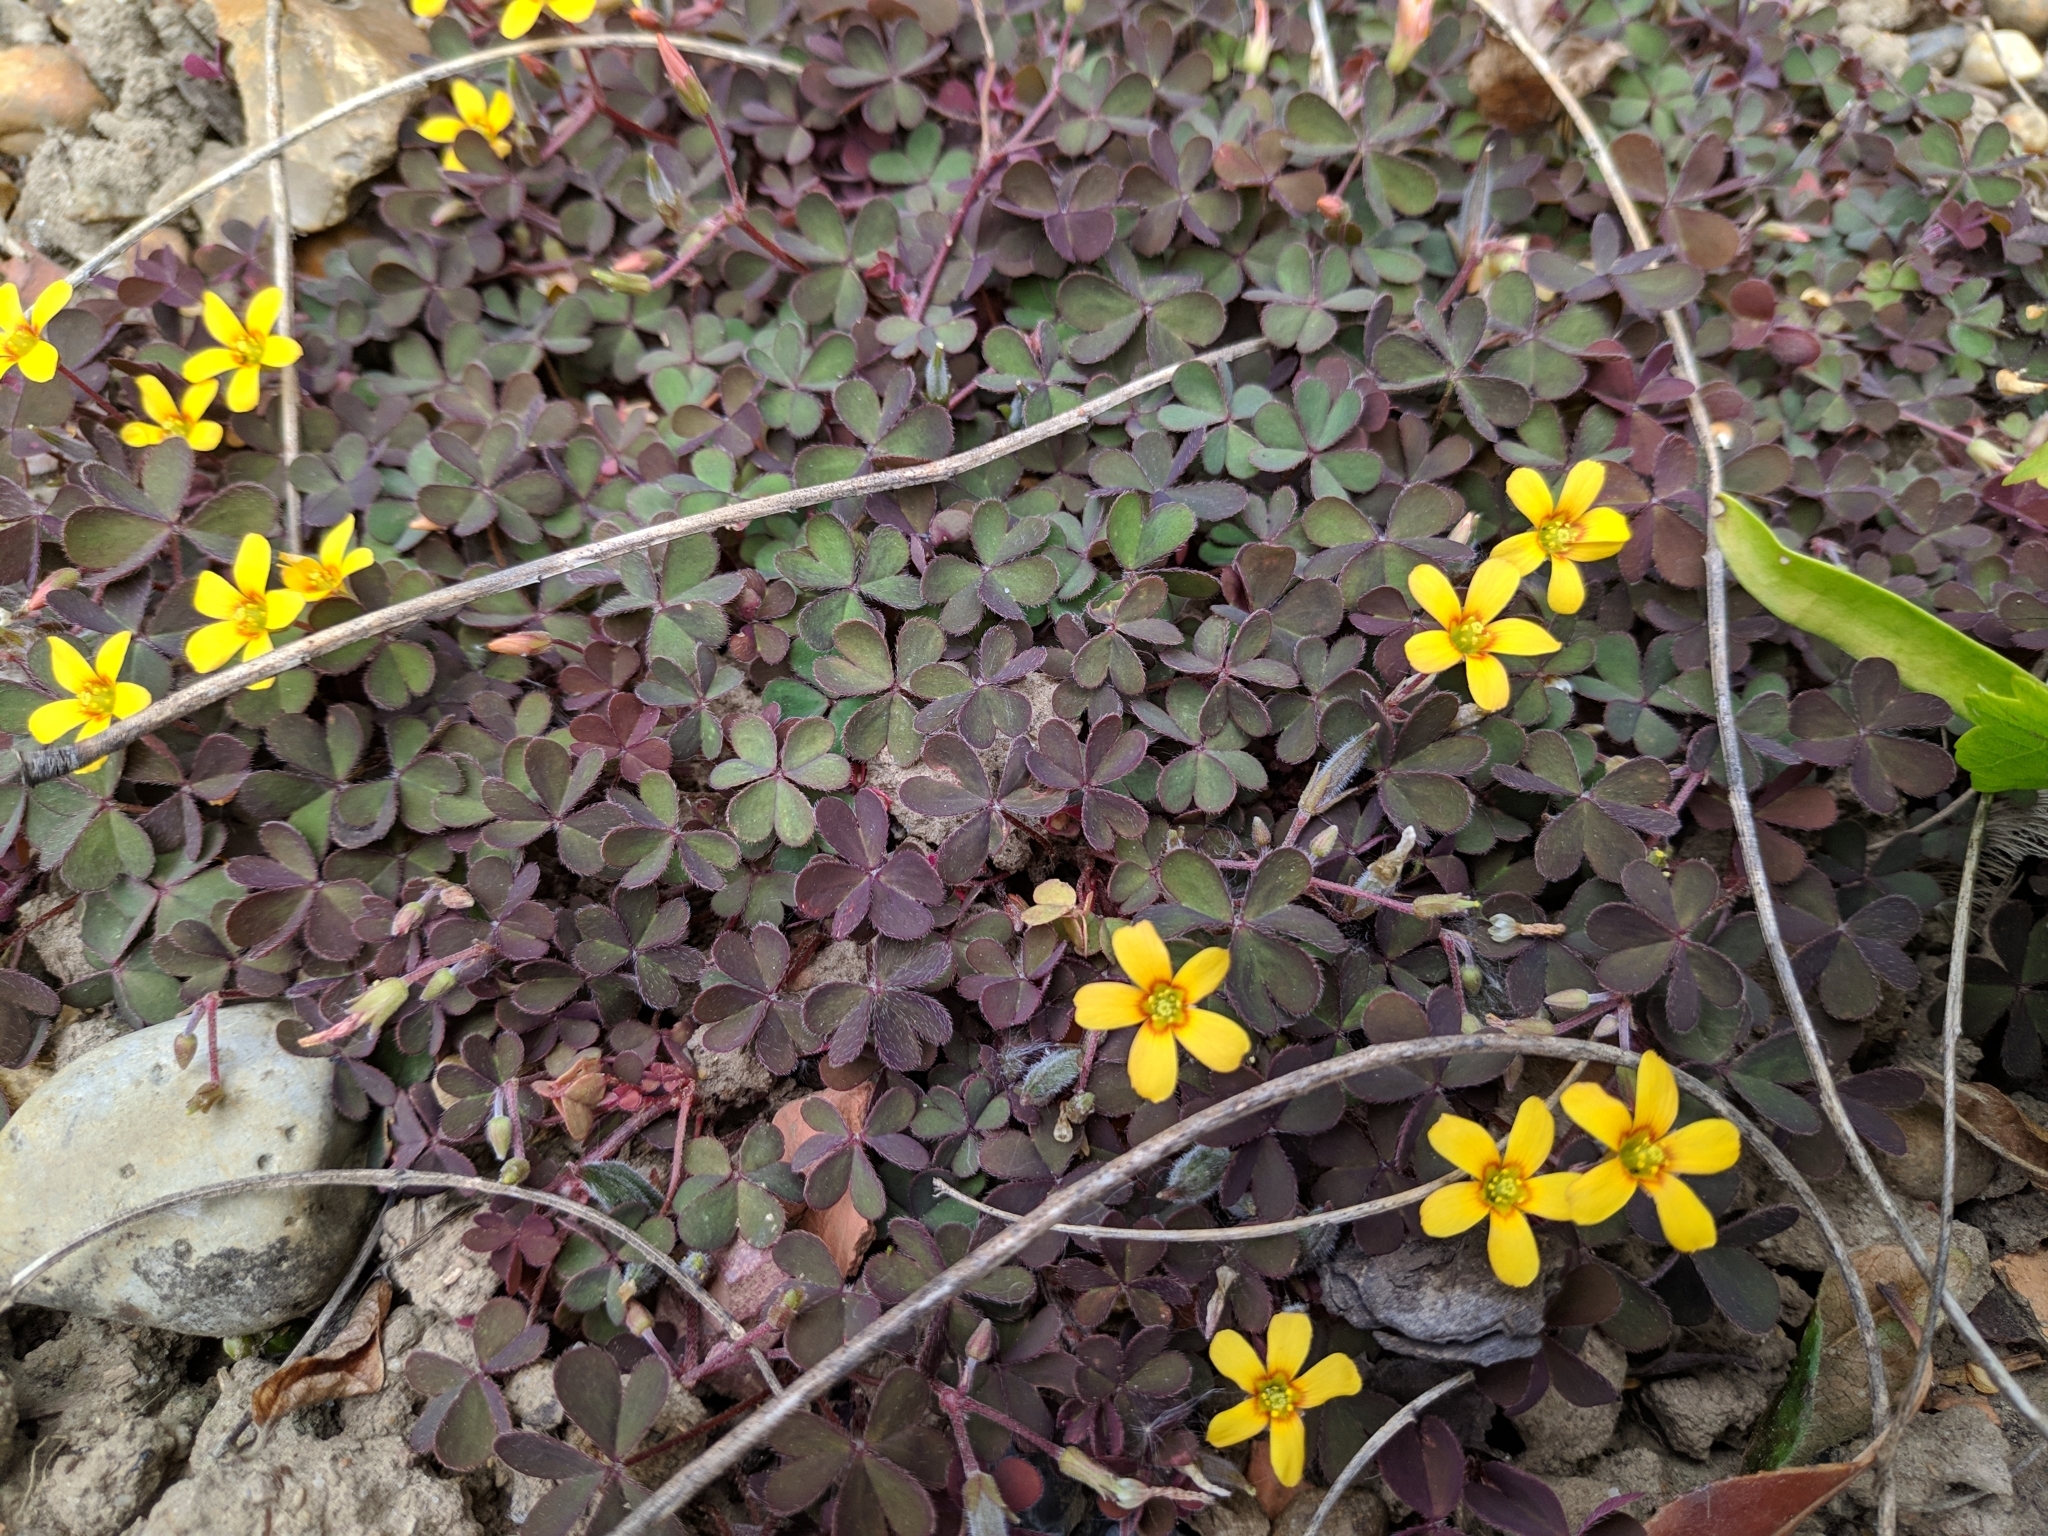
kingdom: Plantae
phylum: Tracheophyta
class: Magnoliopsida
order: Oxalidales
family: Oxalidaceae
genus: Oxalis
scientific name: Oxalis corniculata
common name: Procumbent yellow-sorrel
